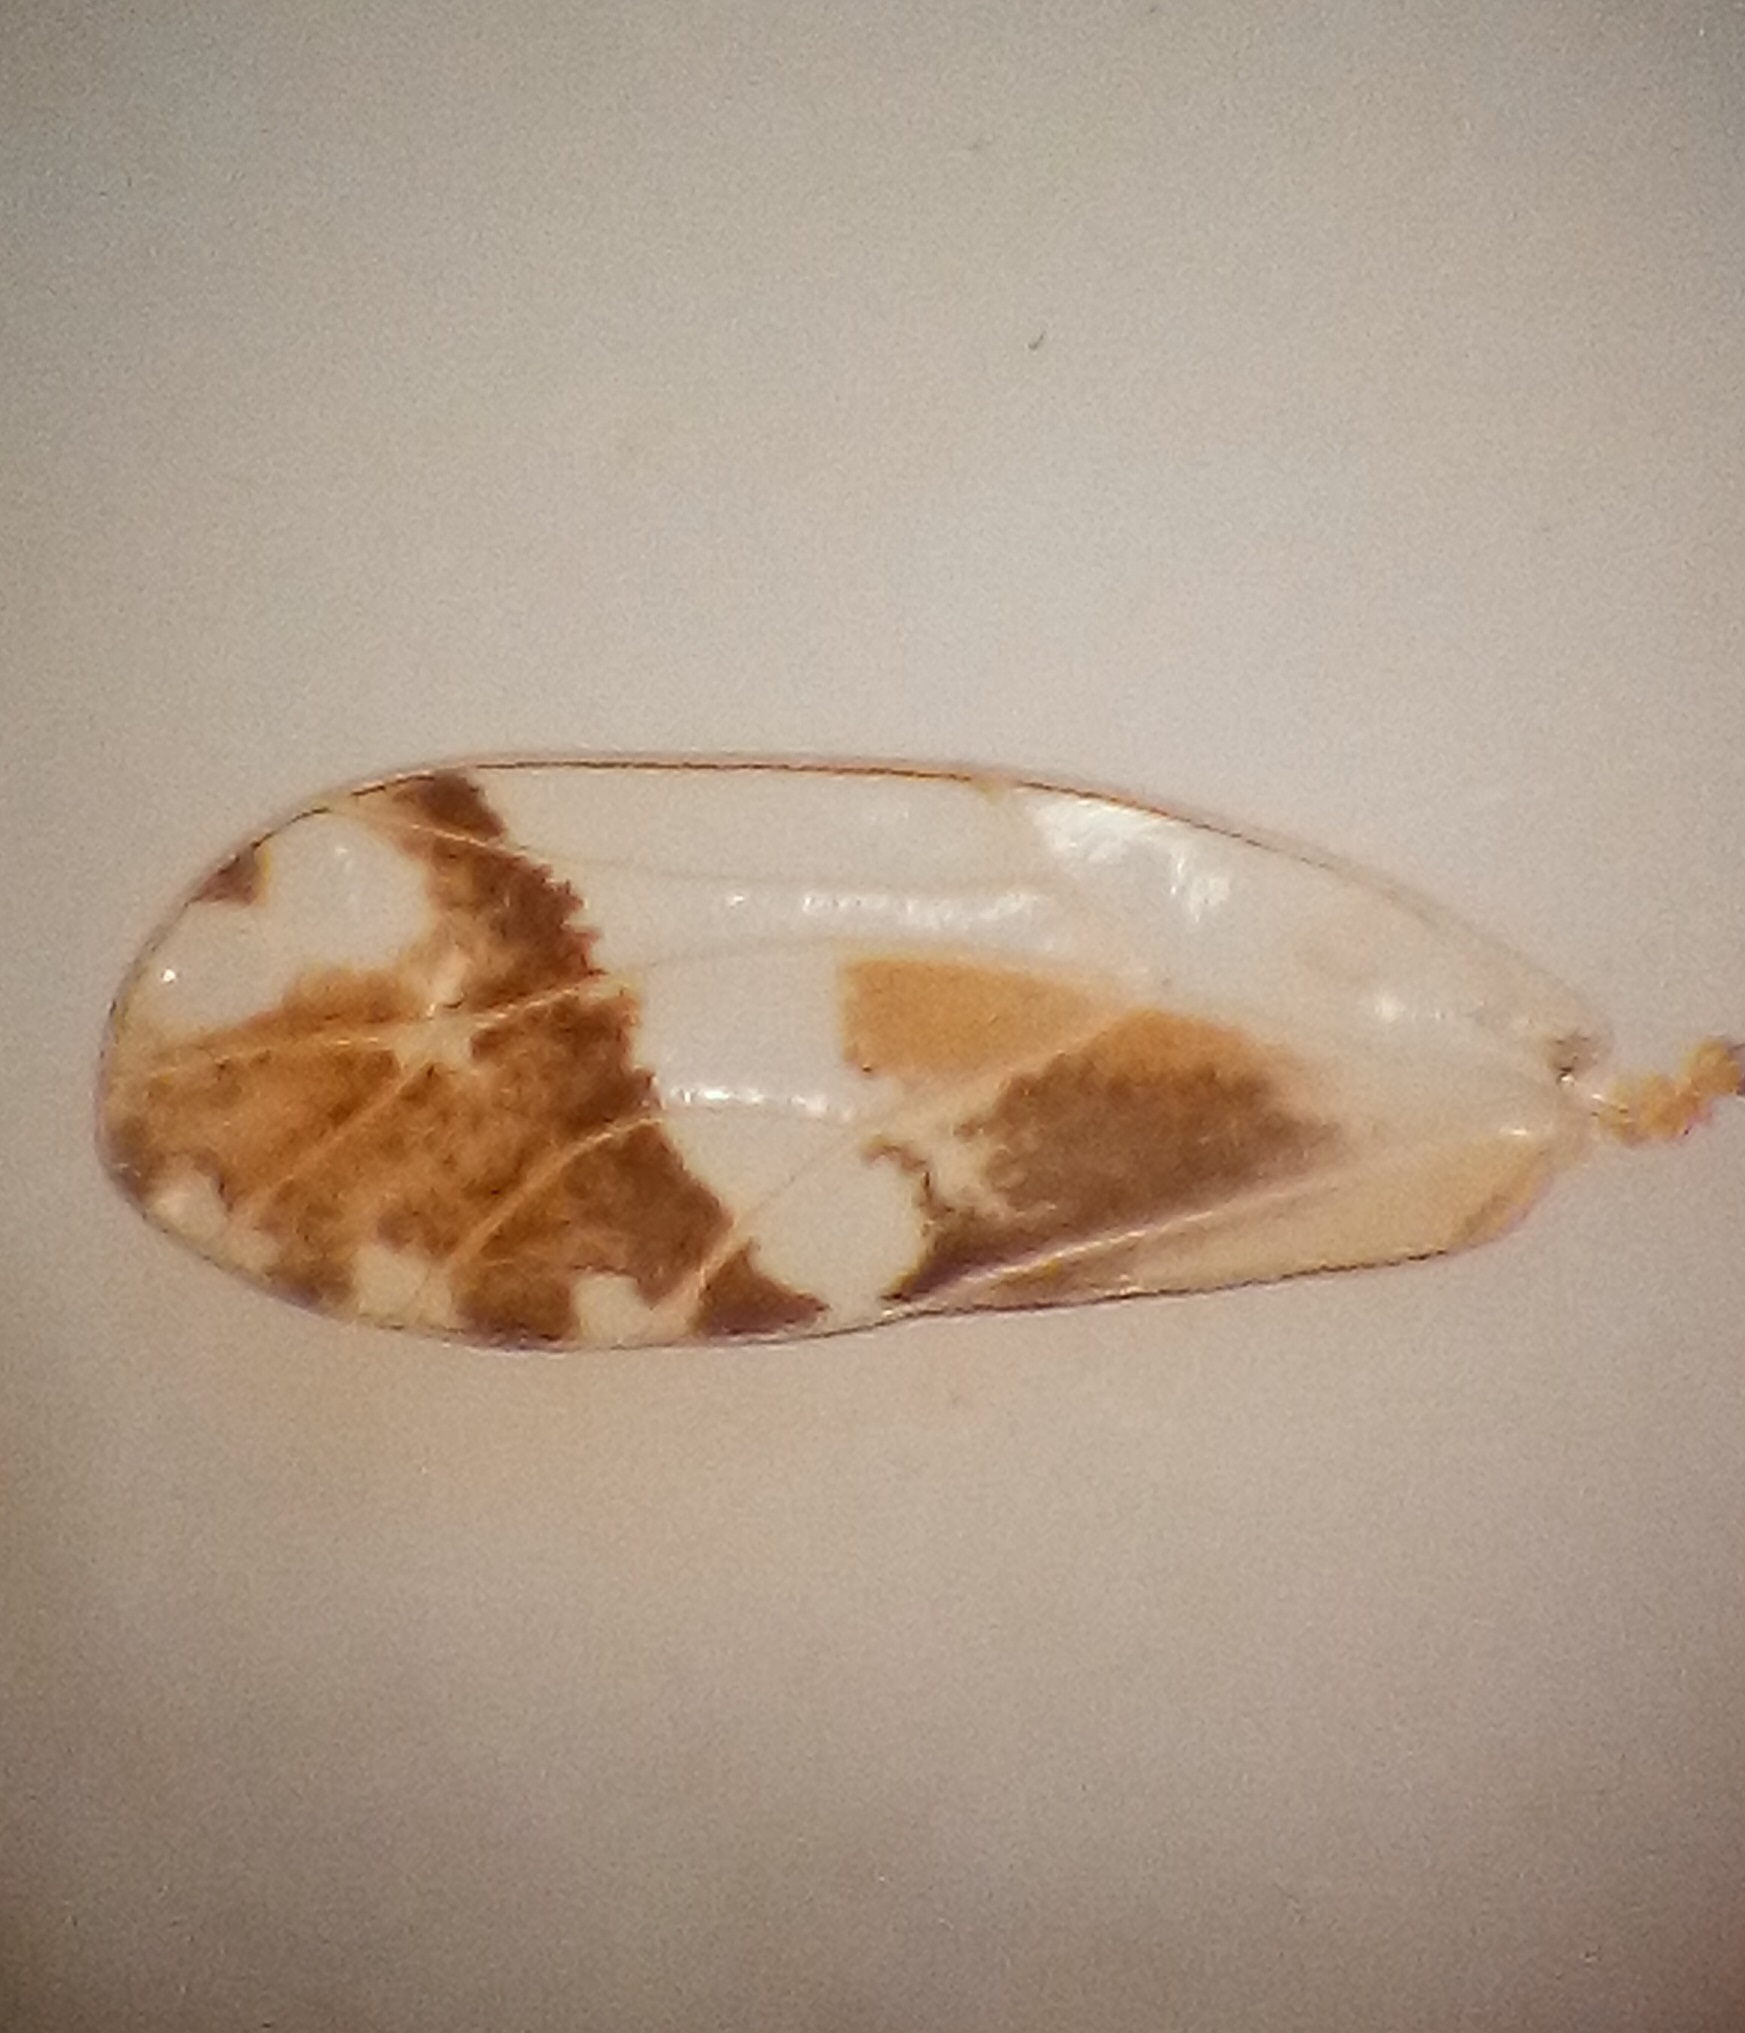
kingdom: Animalia
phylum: Arthropoda
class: Insecta
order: Hemiptera
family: Triozidae
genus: Casuarinicola
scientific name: Casuarinicola nigrimaculatus
